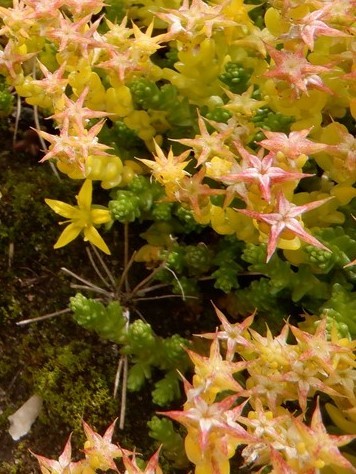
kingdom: Plantae
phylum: Tracheophyta
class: Magnoliopsida
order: Saxifragales
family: Crassulaceae
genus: Sedum
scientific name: Sedum acre
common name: Biting stonecrop
